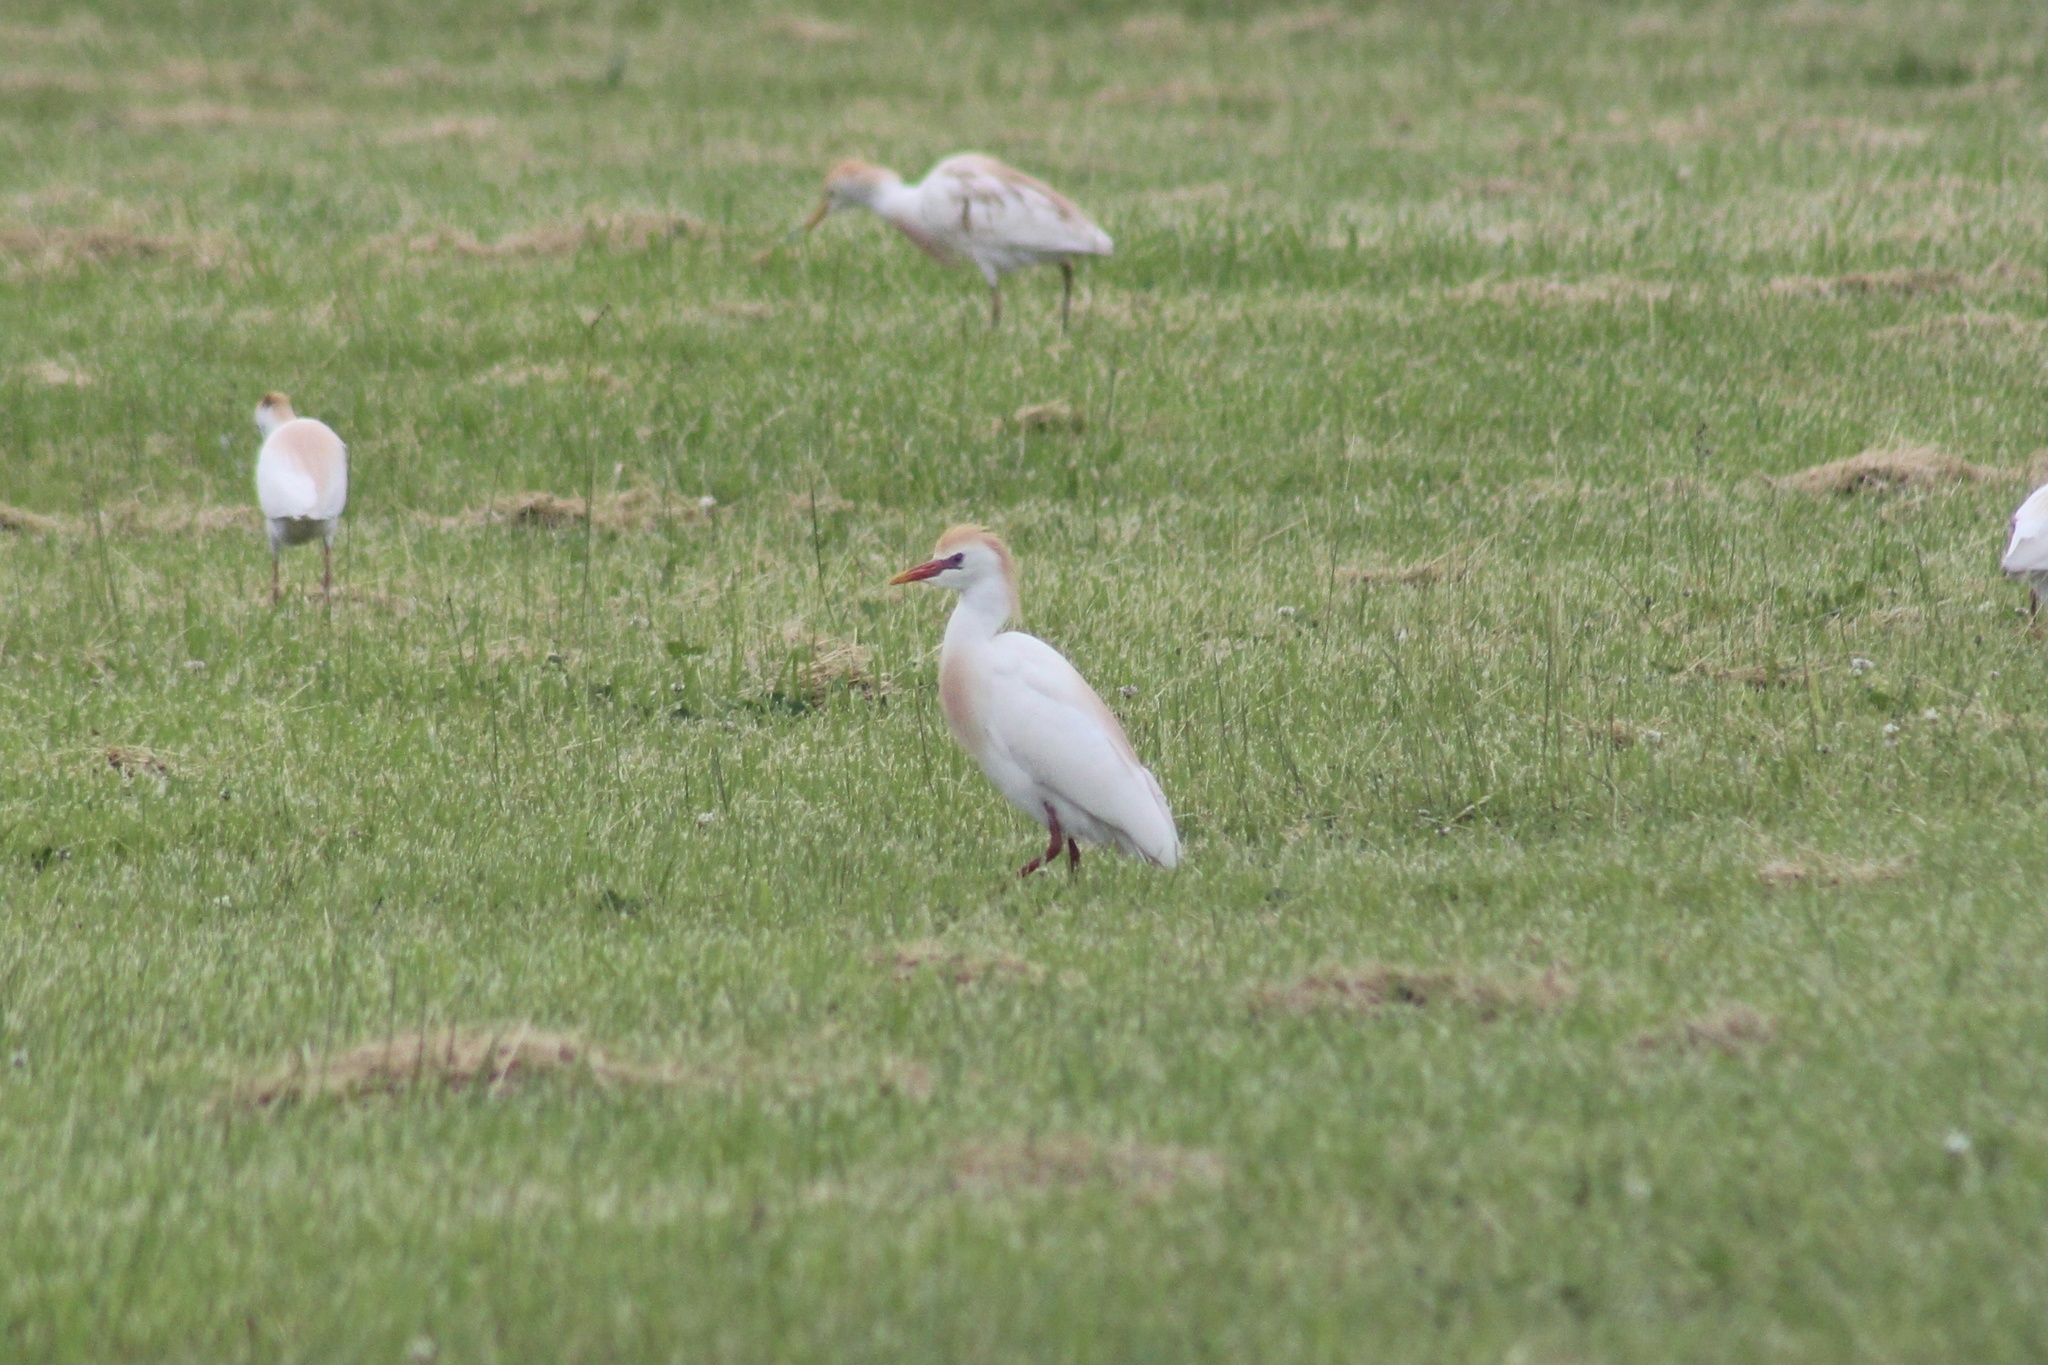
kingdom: Animalia
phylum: Chordata
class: Aves
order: Pelecaniformes
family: Ardeidae
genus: Bubulcus
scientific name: Bubulcus ibis
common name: Cattle egret
